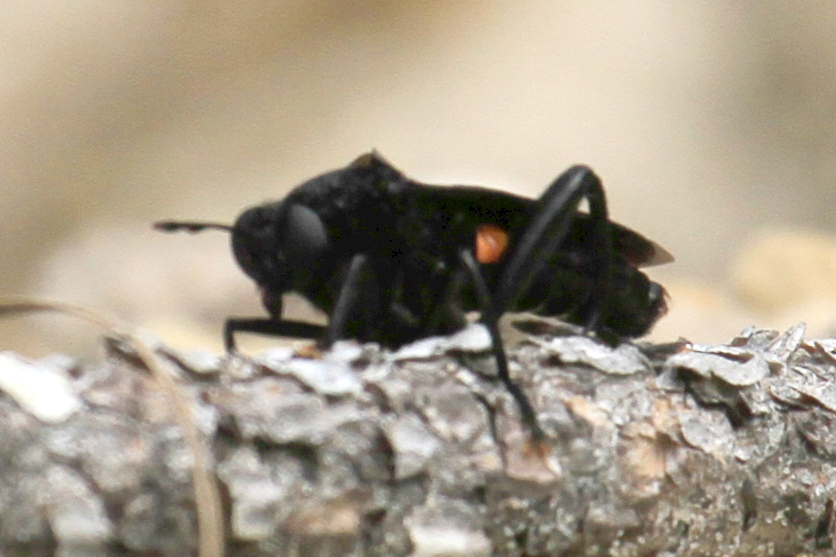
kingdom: Animalia
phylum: Arthropoda
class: Insecta
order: Diptera
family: Mydidae
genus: Mydas
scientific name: Mydas clavatus
